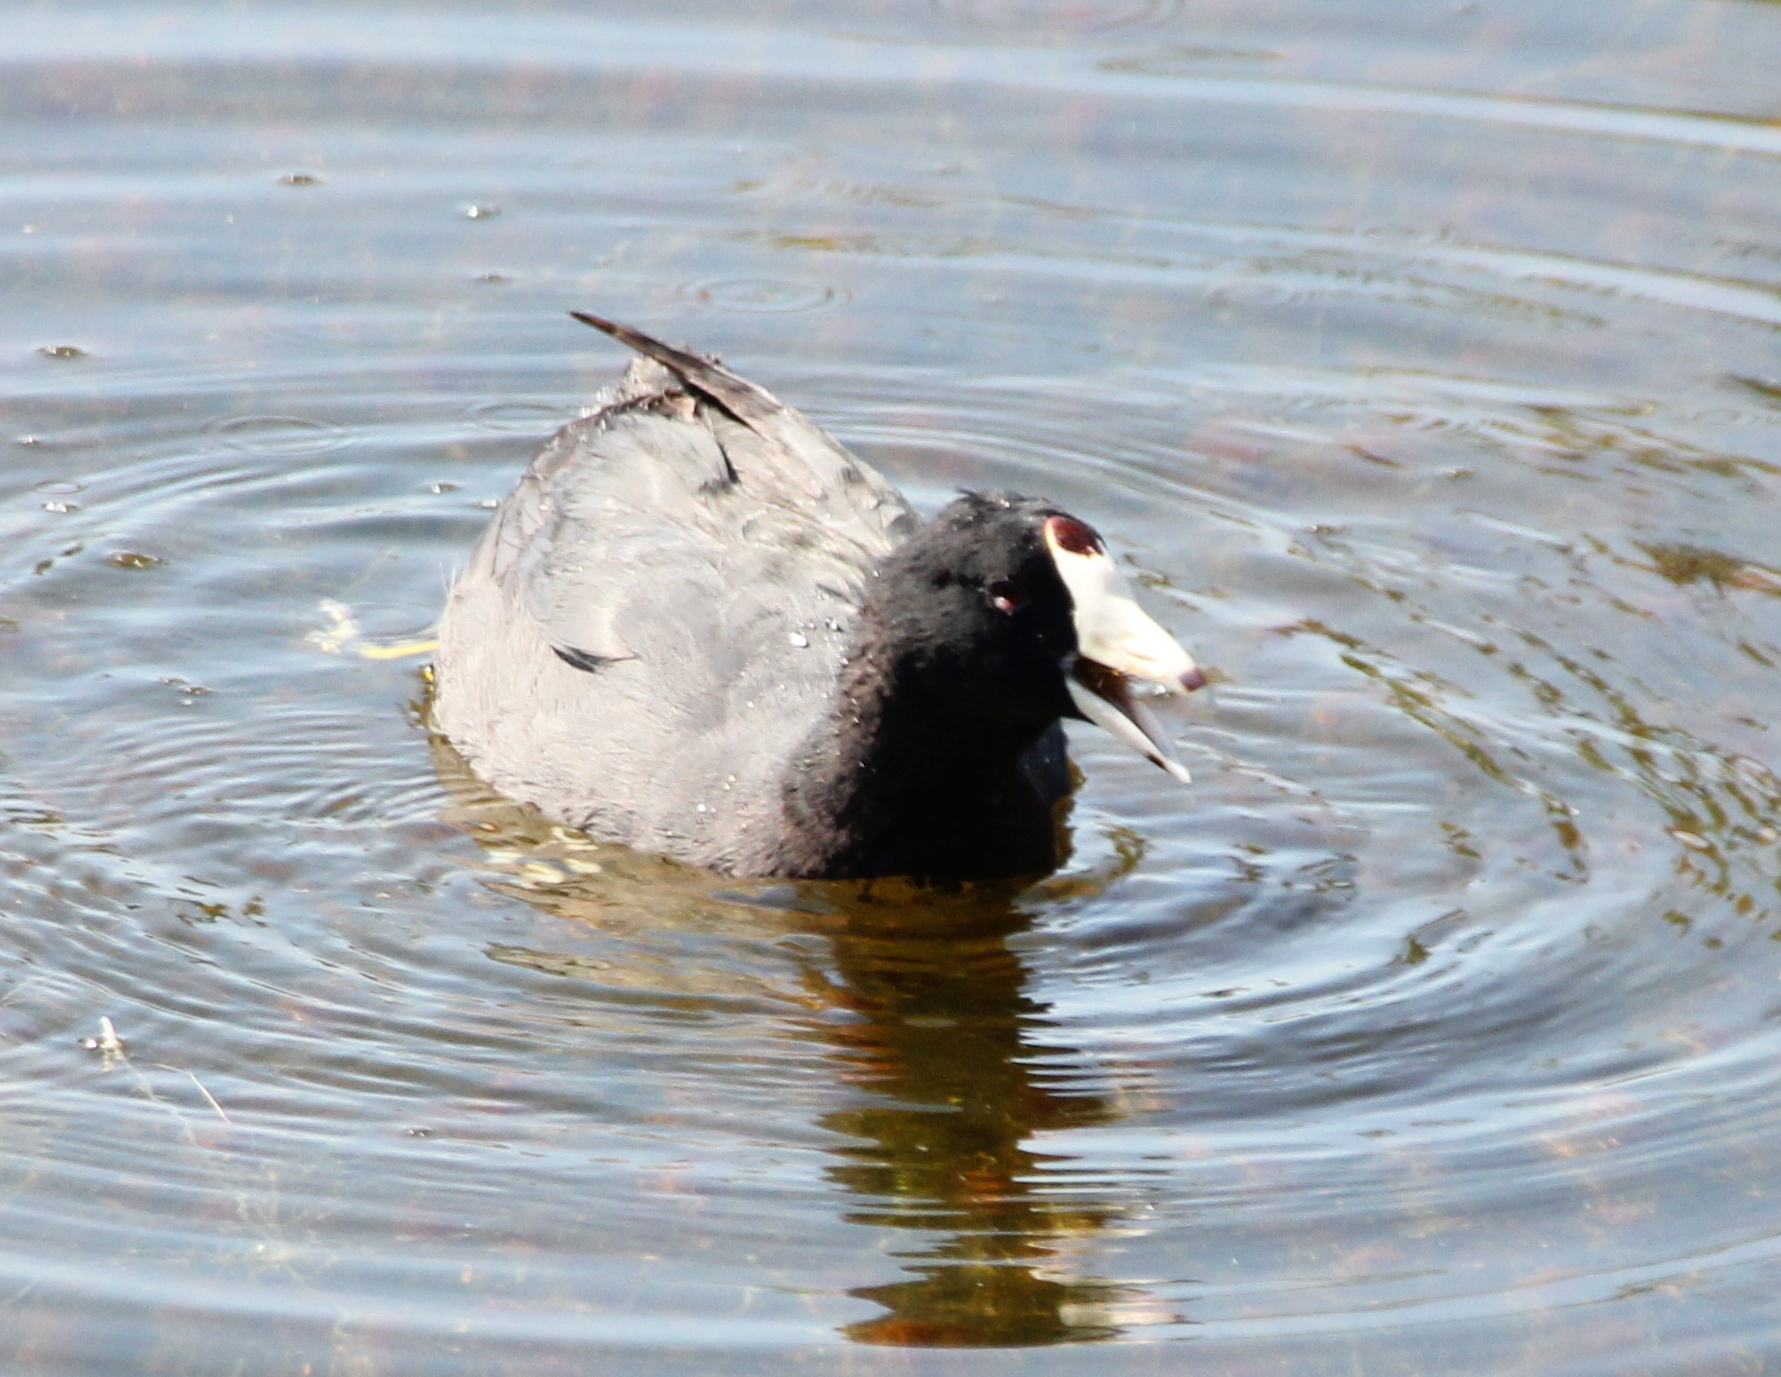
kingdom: Animalia
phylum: Chordata
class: Aves
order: Gruiformes
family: Rallidae
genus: Fulica
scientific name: Fulica americana
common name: American coot
